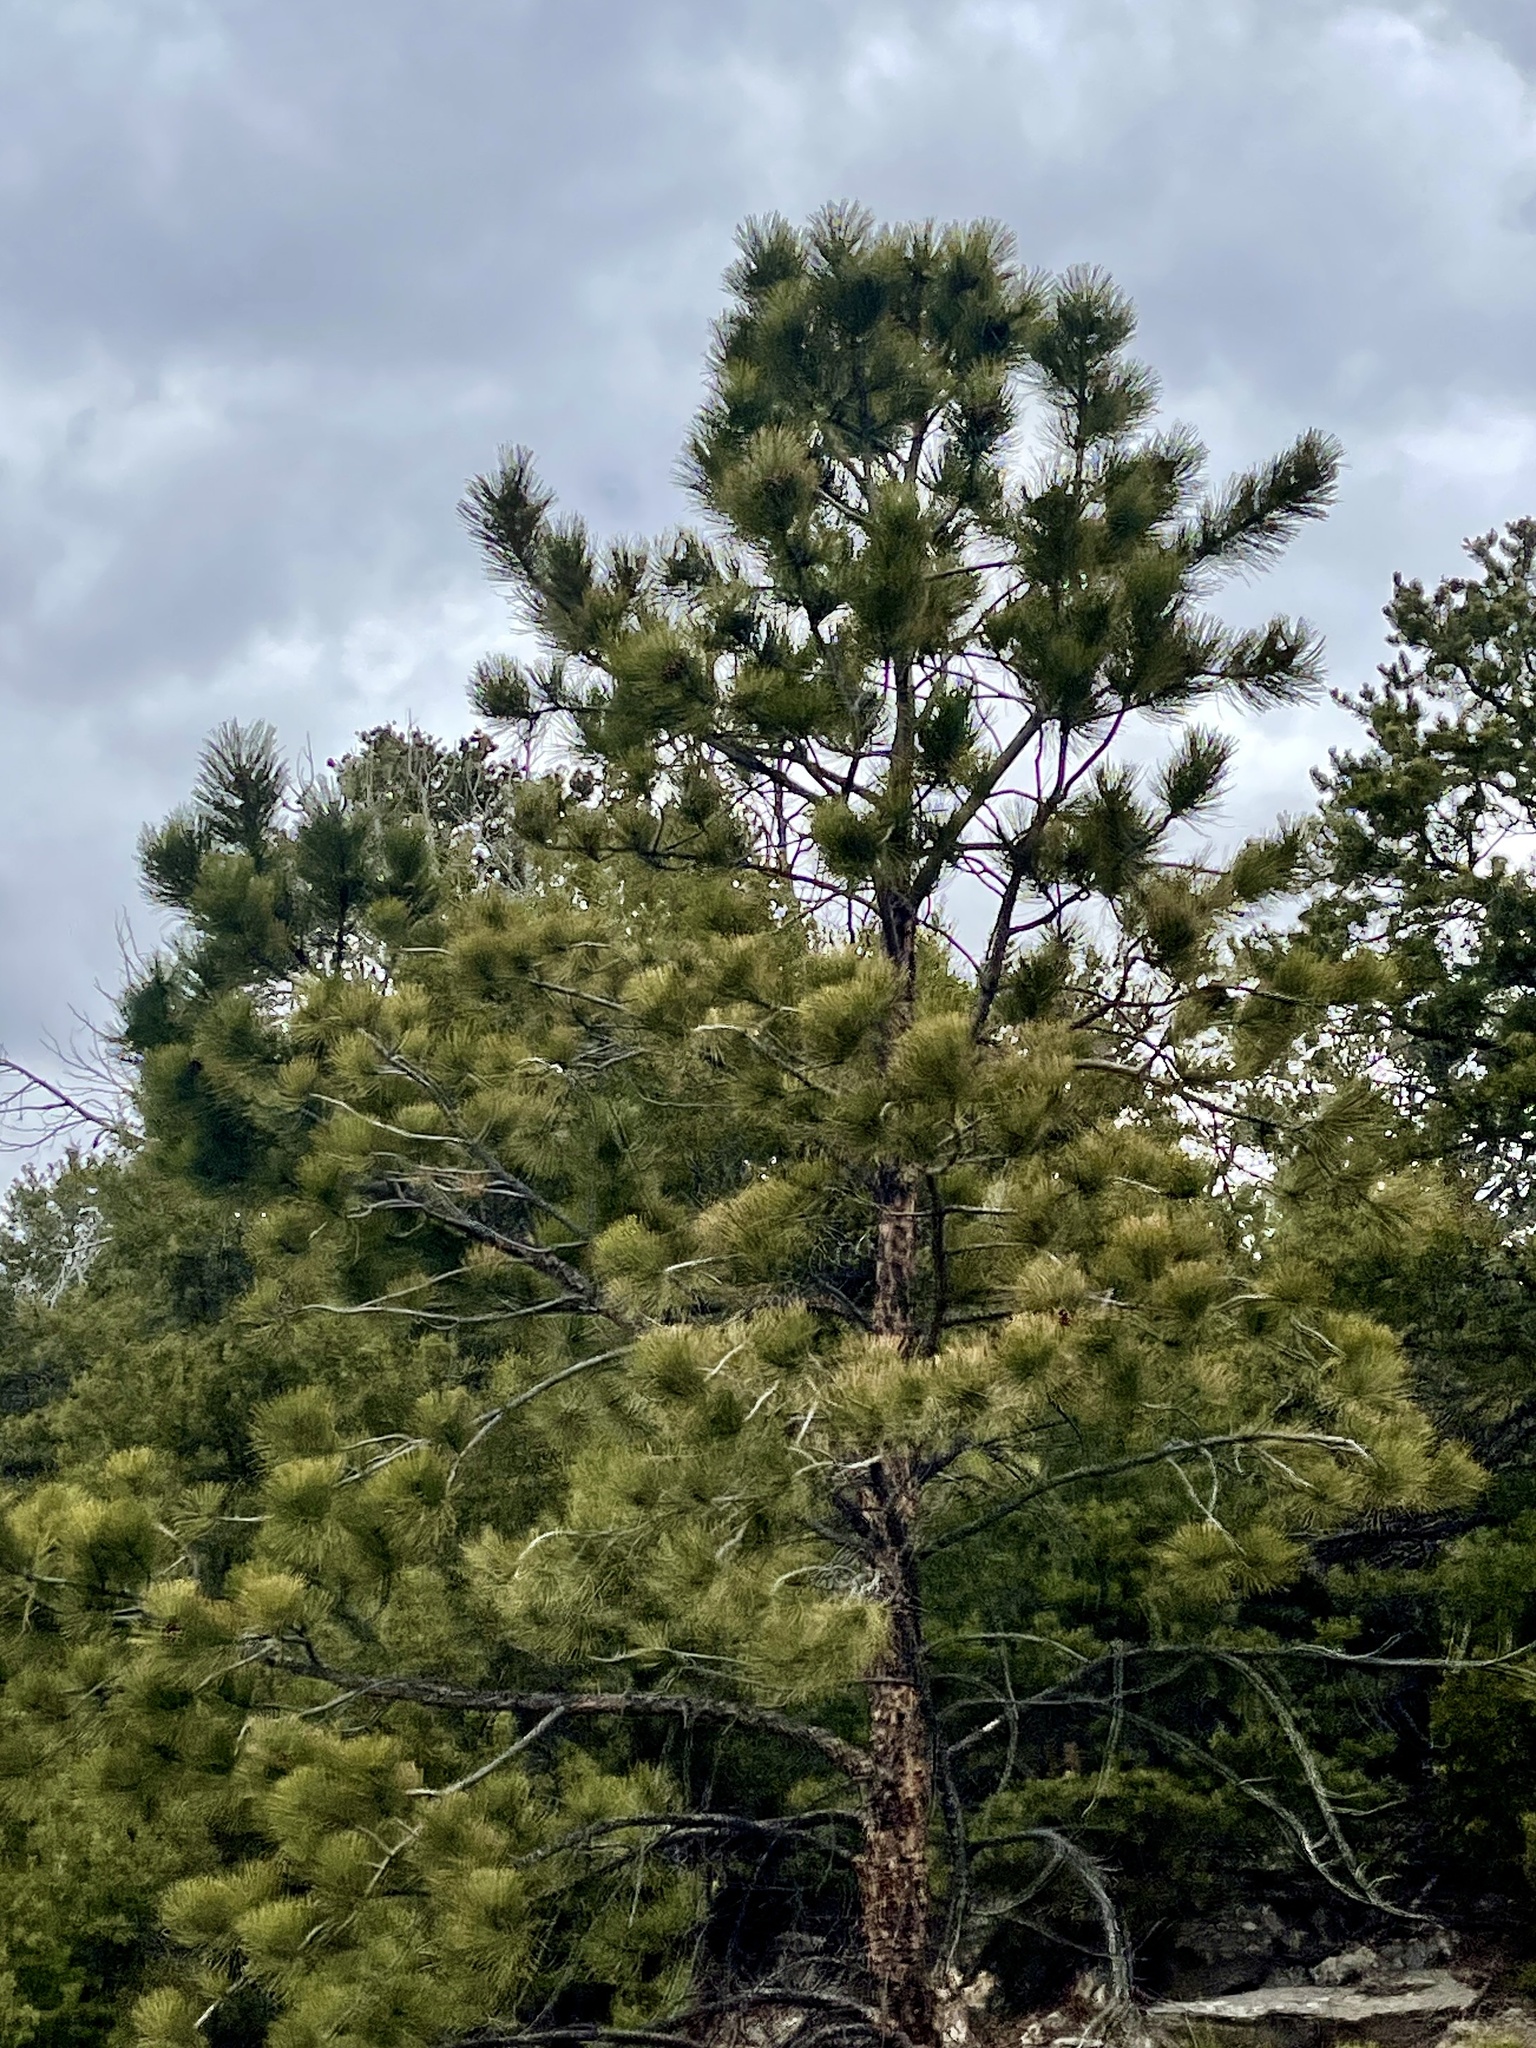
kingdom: Plantae
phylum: Tracheophyta
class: Pinopsida
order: Pinales
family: Pinaceae
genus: Pinus
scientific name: Pinus ponderosa
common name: Western yellow-pine
